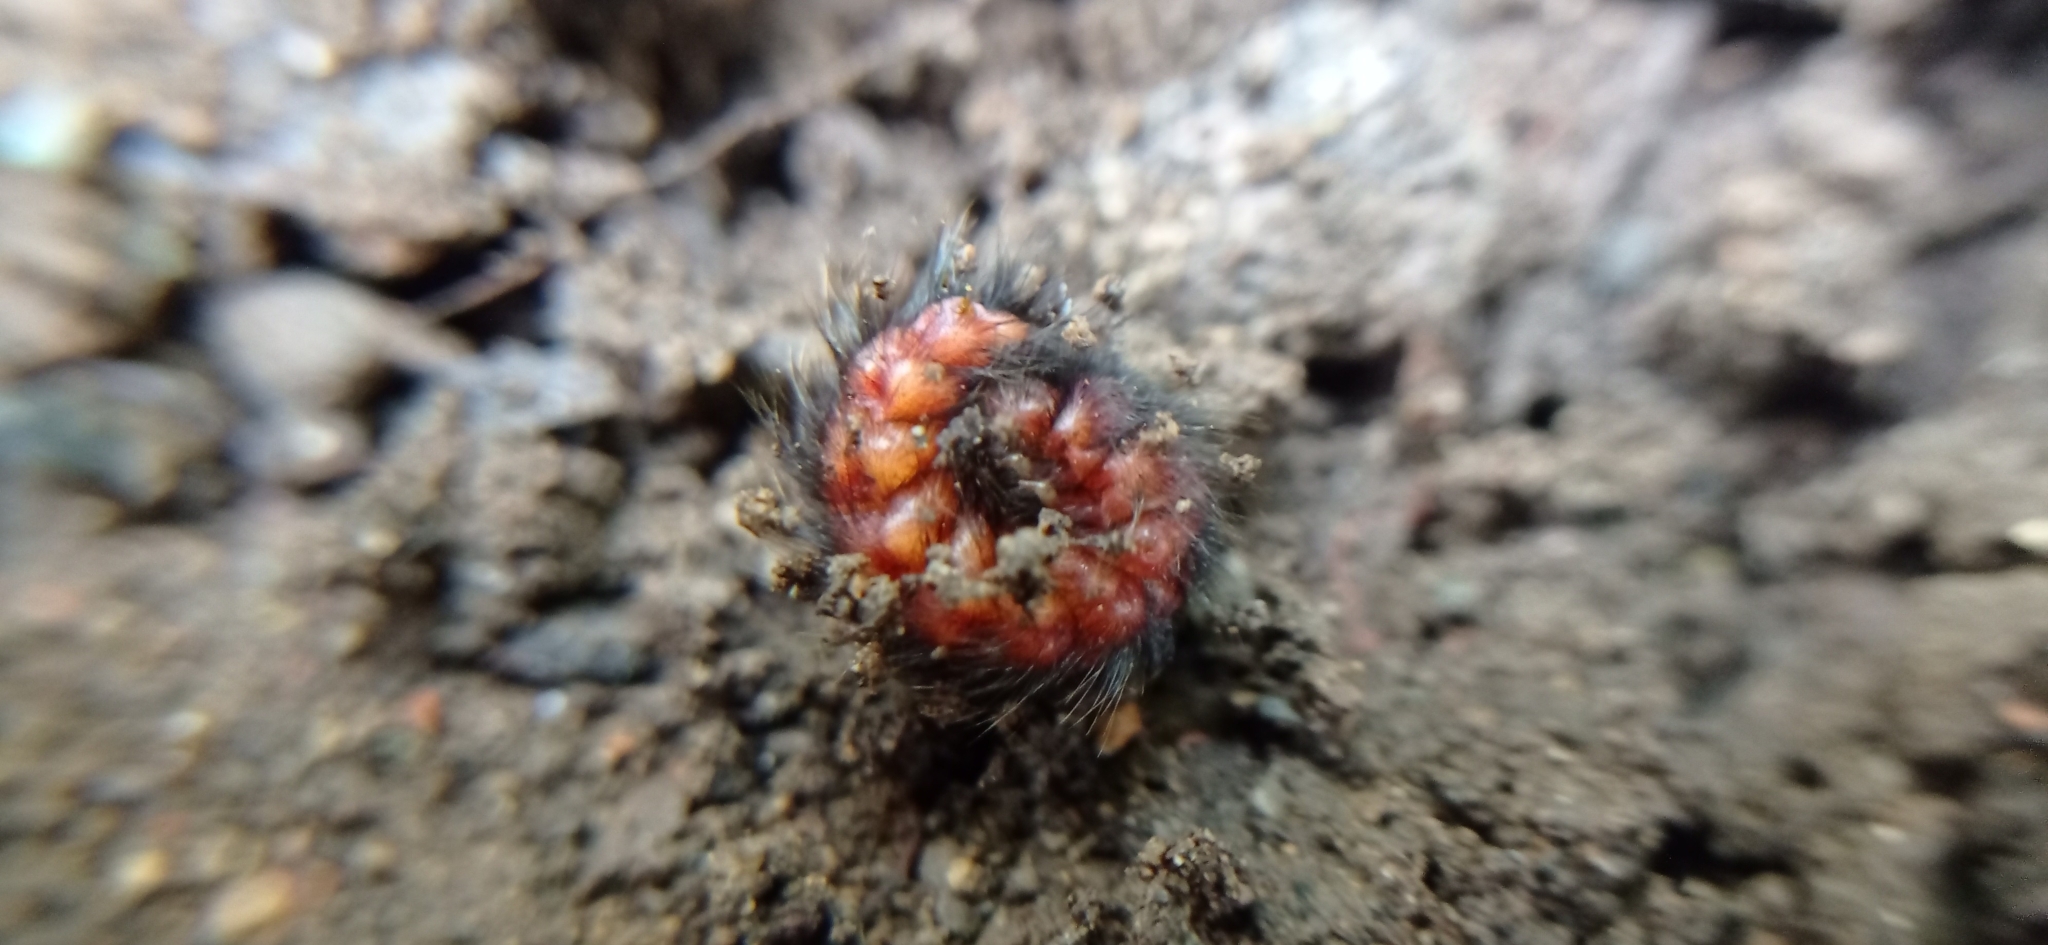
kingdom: Animalia
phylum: Arthropoda
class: Insecta
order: Coleoptera
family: Melyridae
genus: Astylus
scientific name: Astylus
